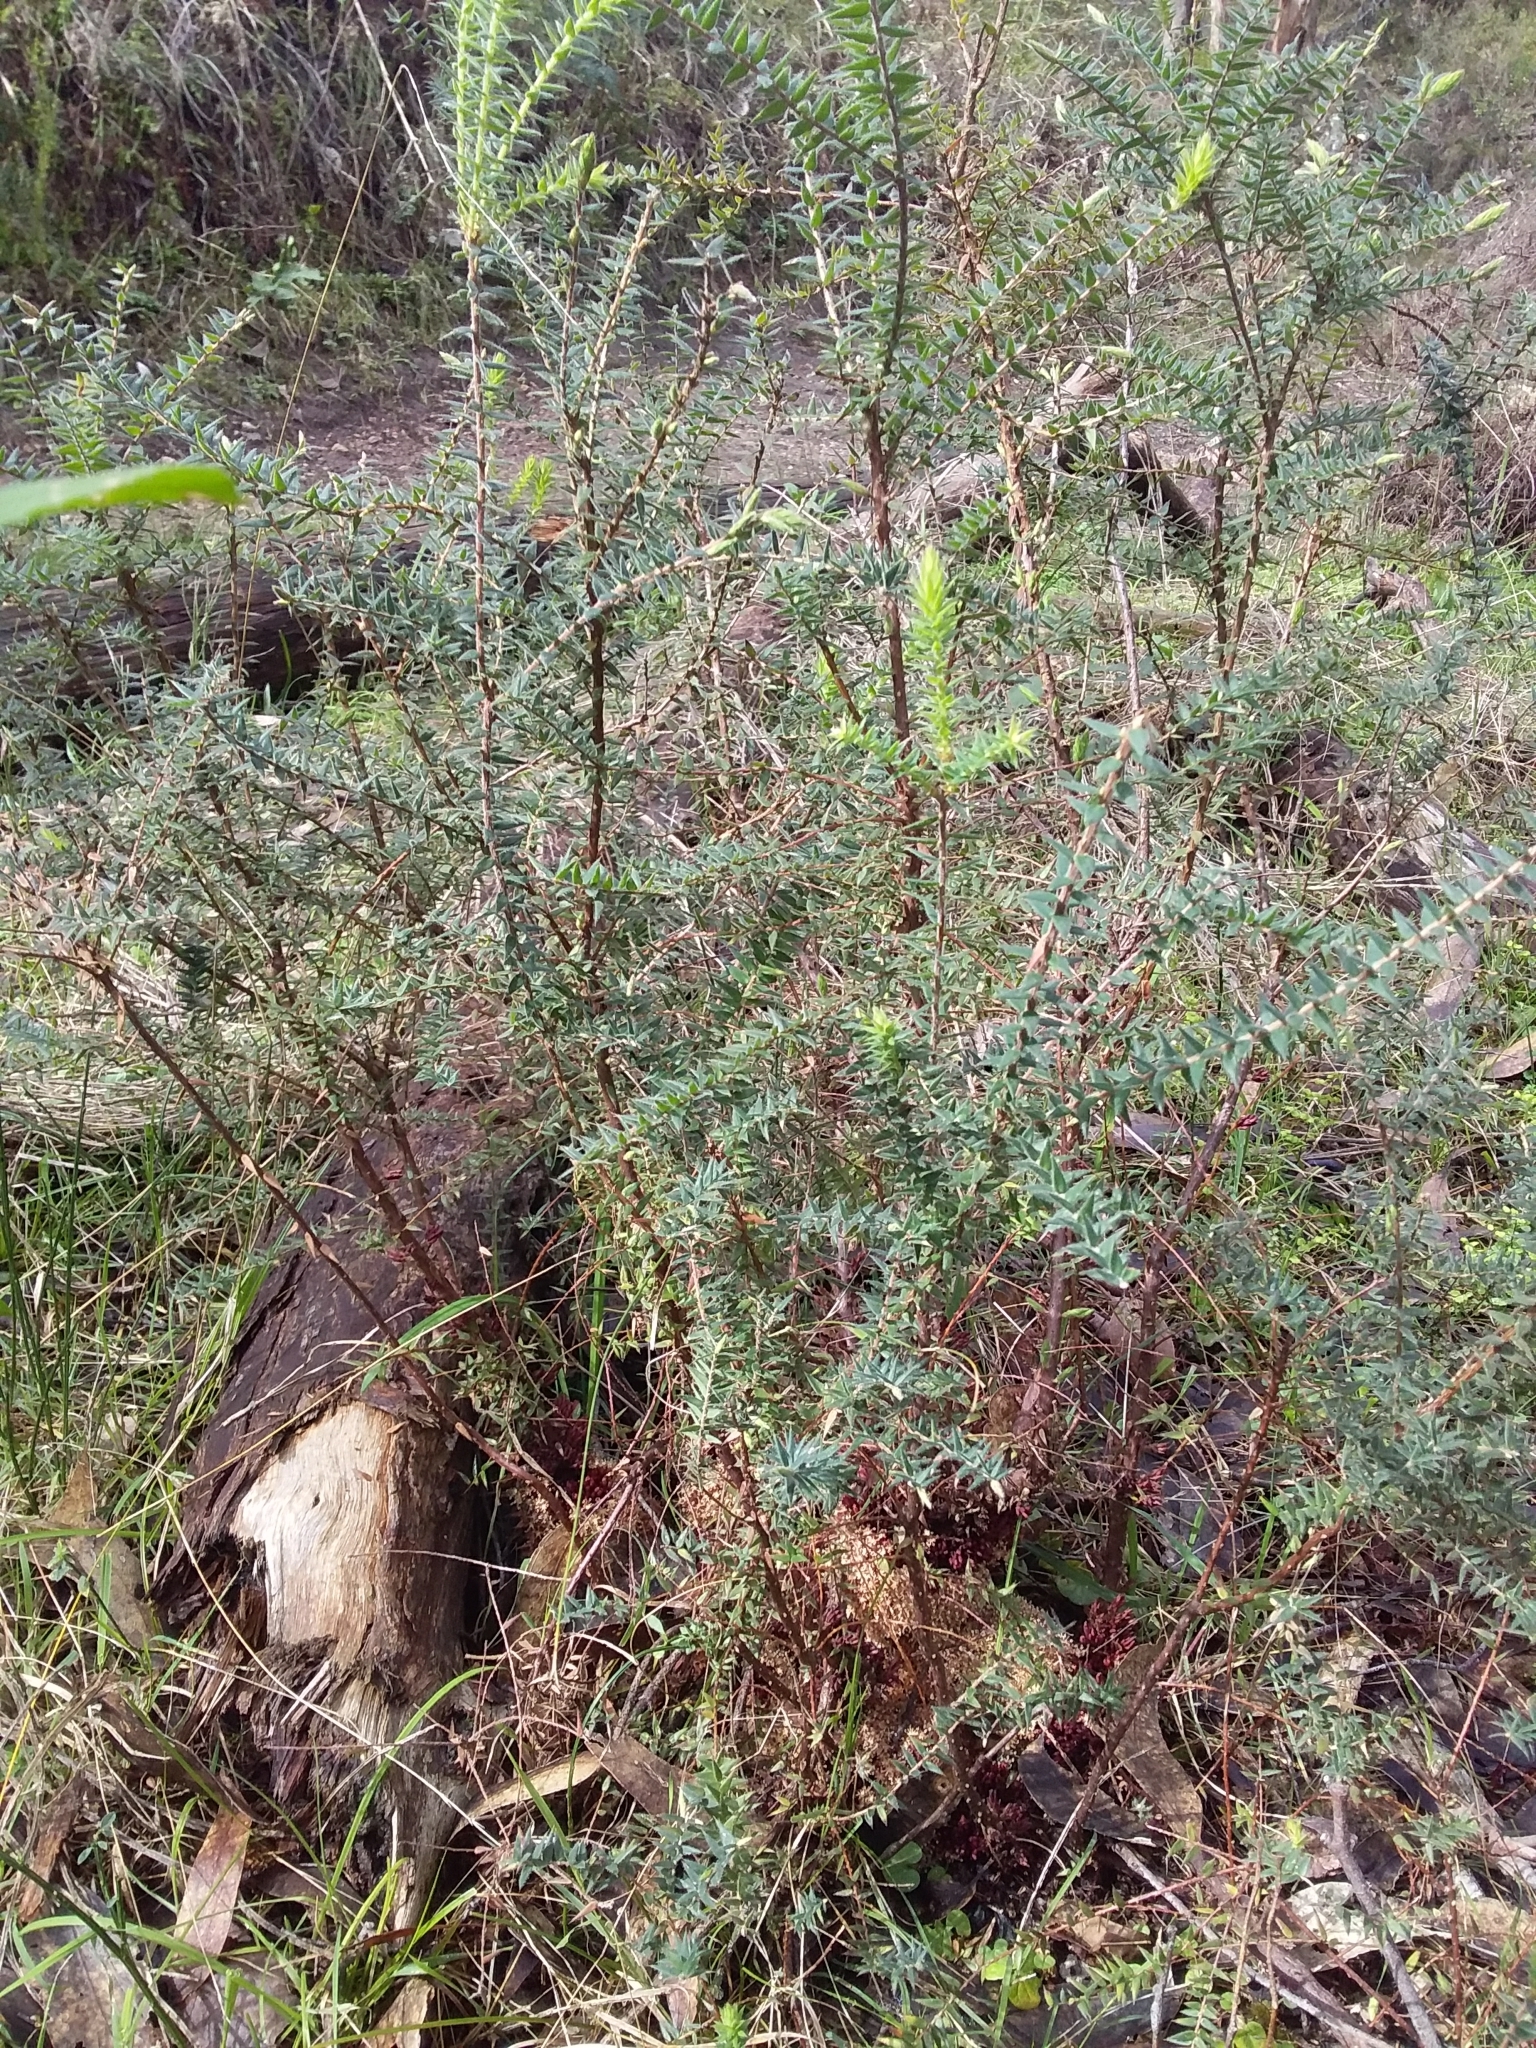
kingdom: Plantae
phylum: Tracheophyta
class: Magnoliopsida
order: Ericales
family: Ericaceae
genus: Acrotriche
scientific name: Acrotriche fasciculiflora
